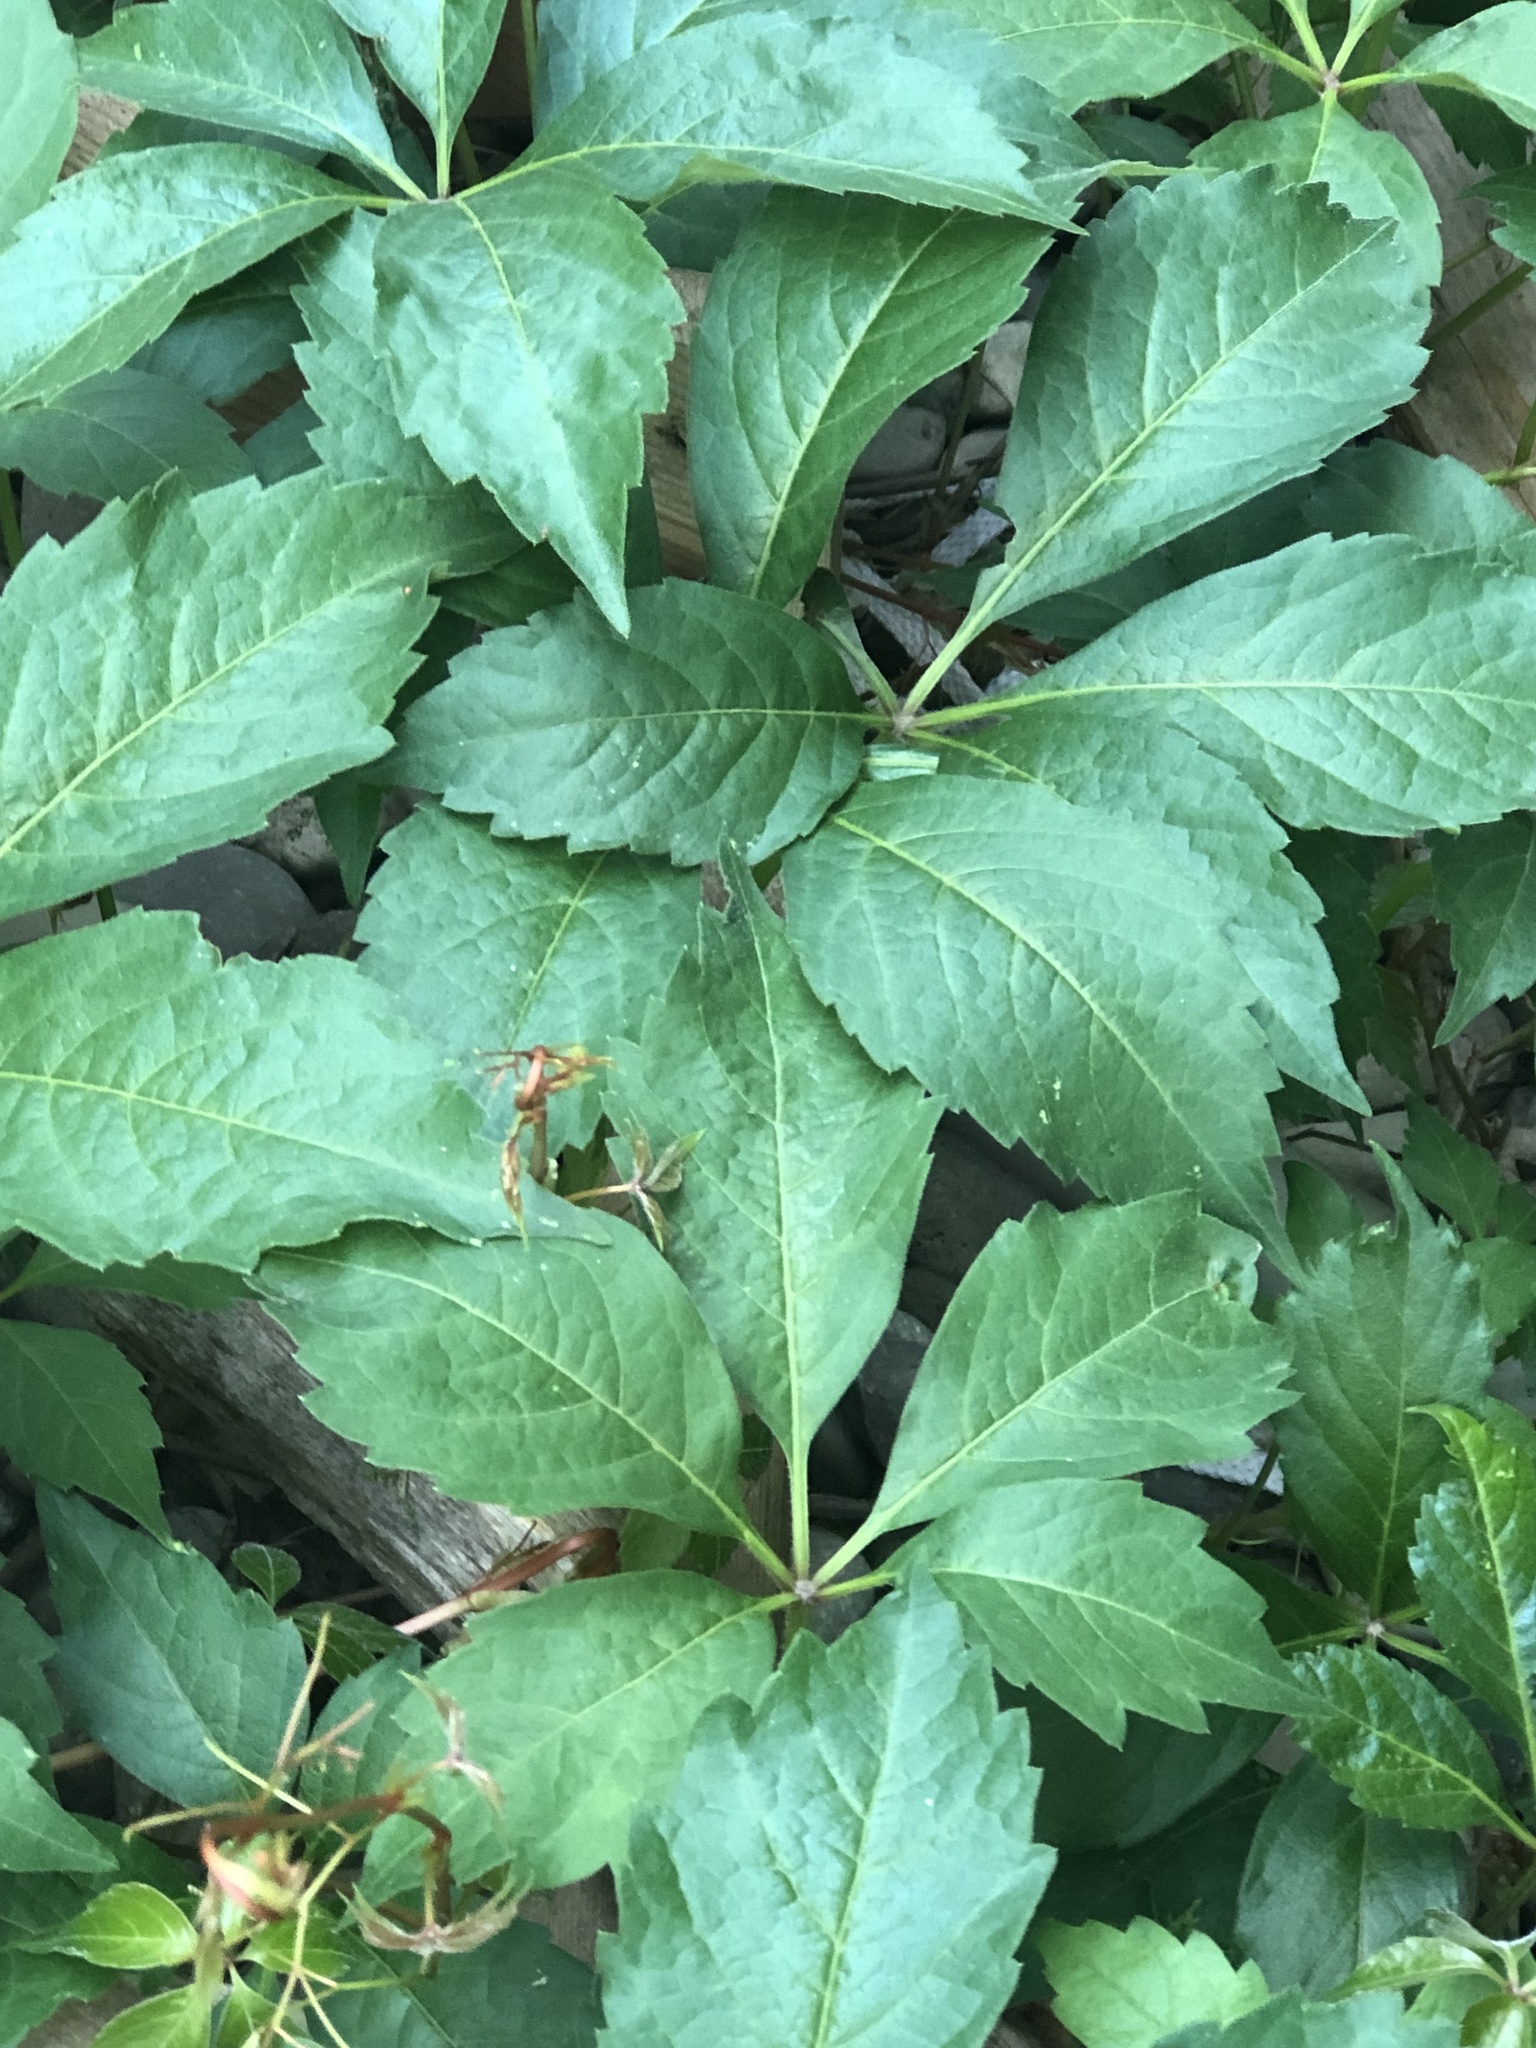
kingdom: Plantae
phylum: Tracheophyta
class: Magnoliopsida
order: Vitales
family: Vitaceae
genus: Parthenocissus
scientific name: Parthenocissus quinquefolia
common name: Virginia-creeper
